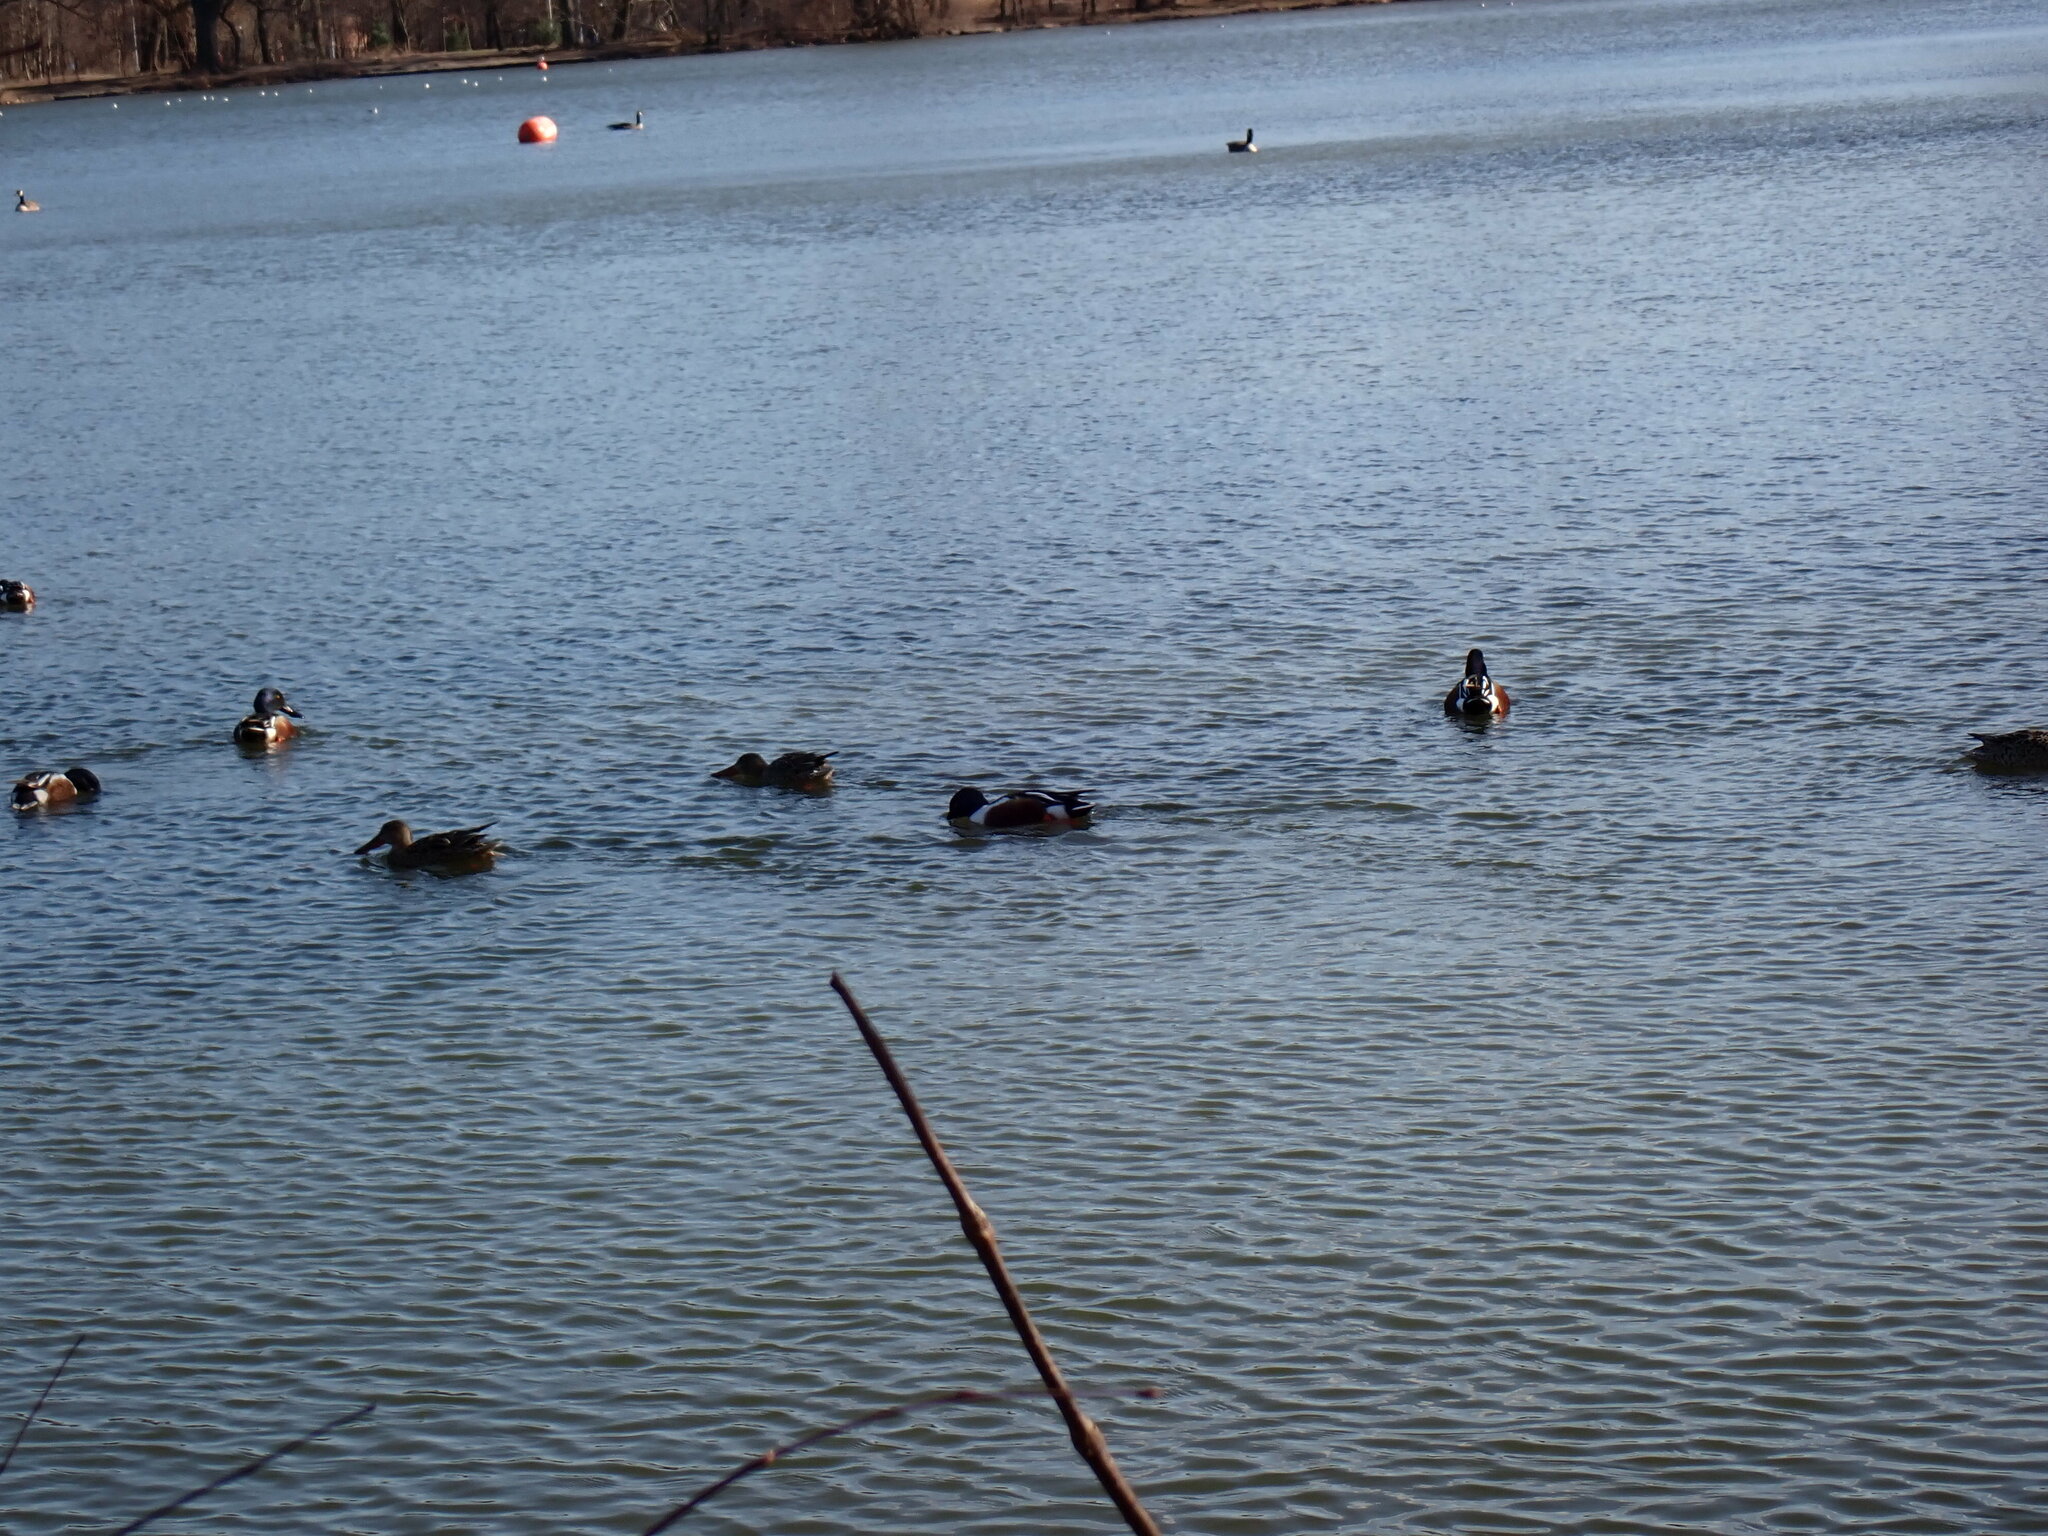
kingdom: Animalia
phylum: Chordata
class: Aves
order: Anseriformes
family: Anatidae
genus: Spatula
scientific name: Spatula clypeata
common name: Northern shoveler
